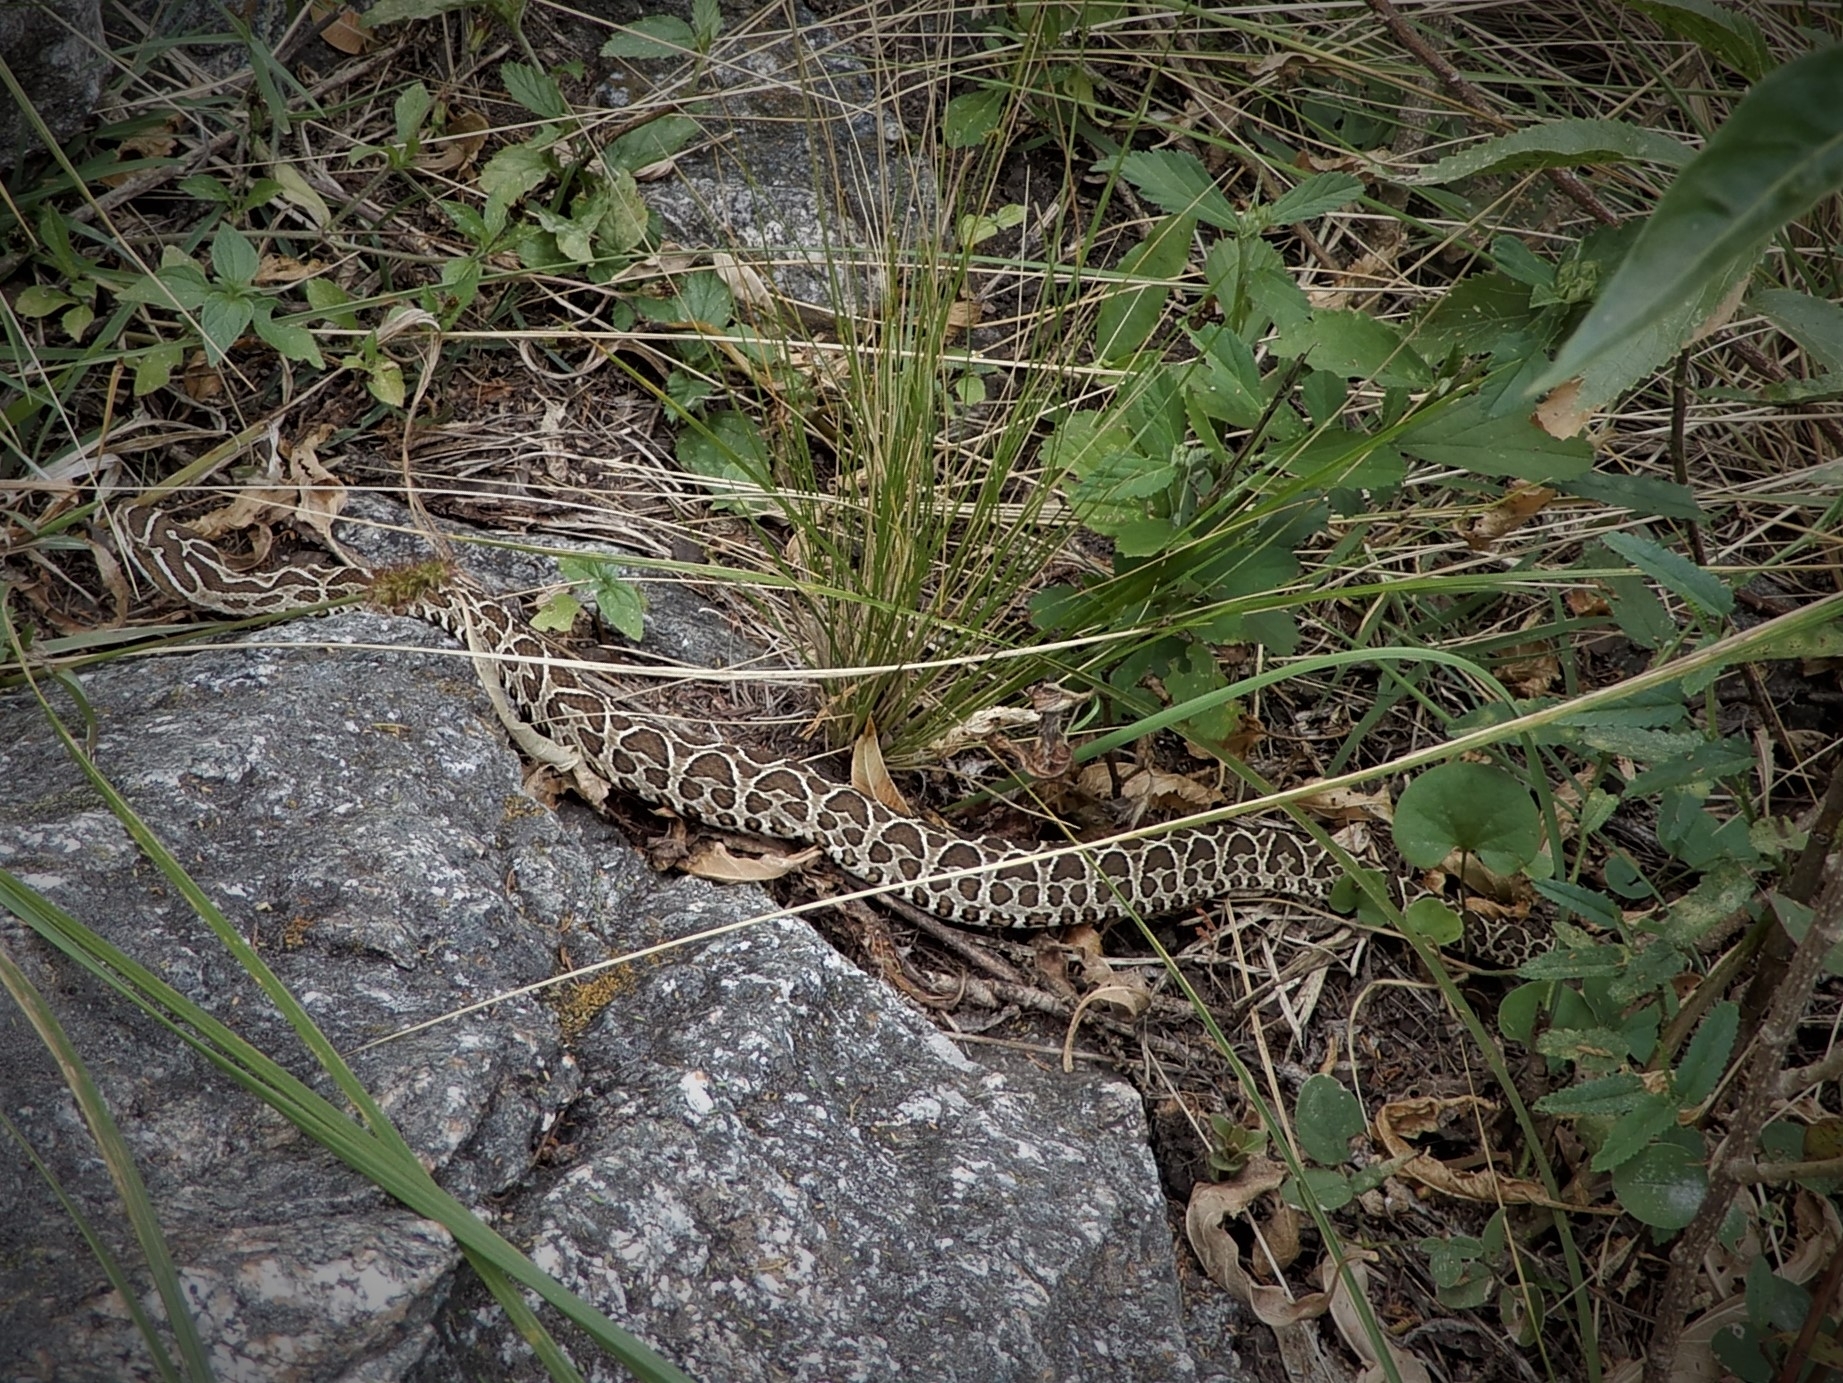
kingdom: Animalia
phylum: Chordata
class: Squamata
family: Viperidae
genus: Bothrops
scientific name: Bothrops alternatus
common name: Urutu
